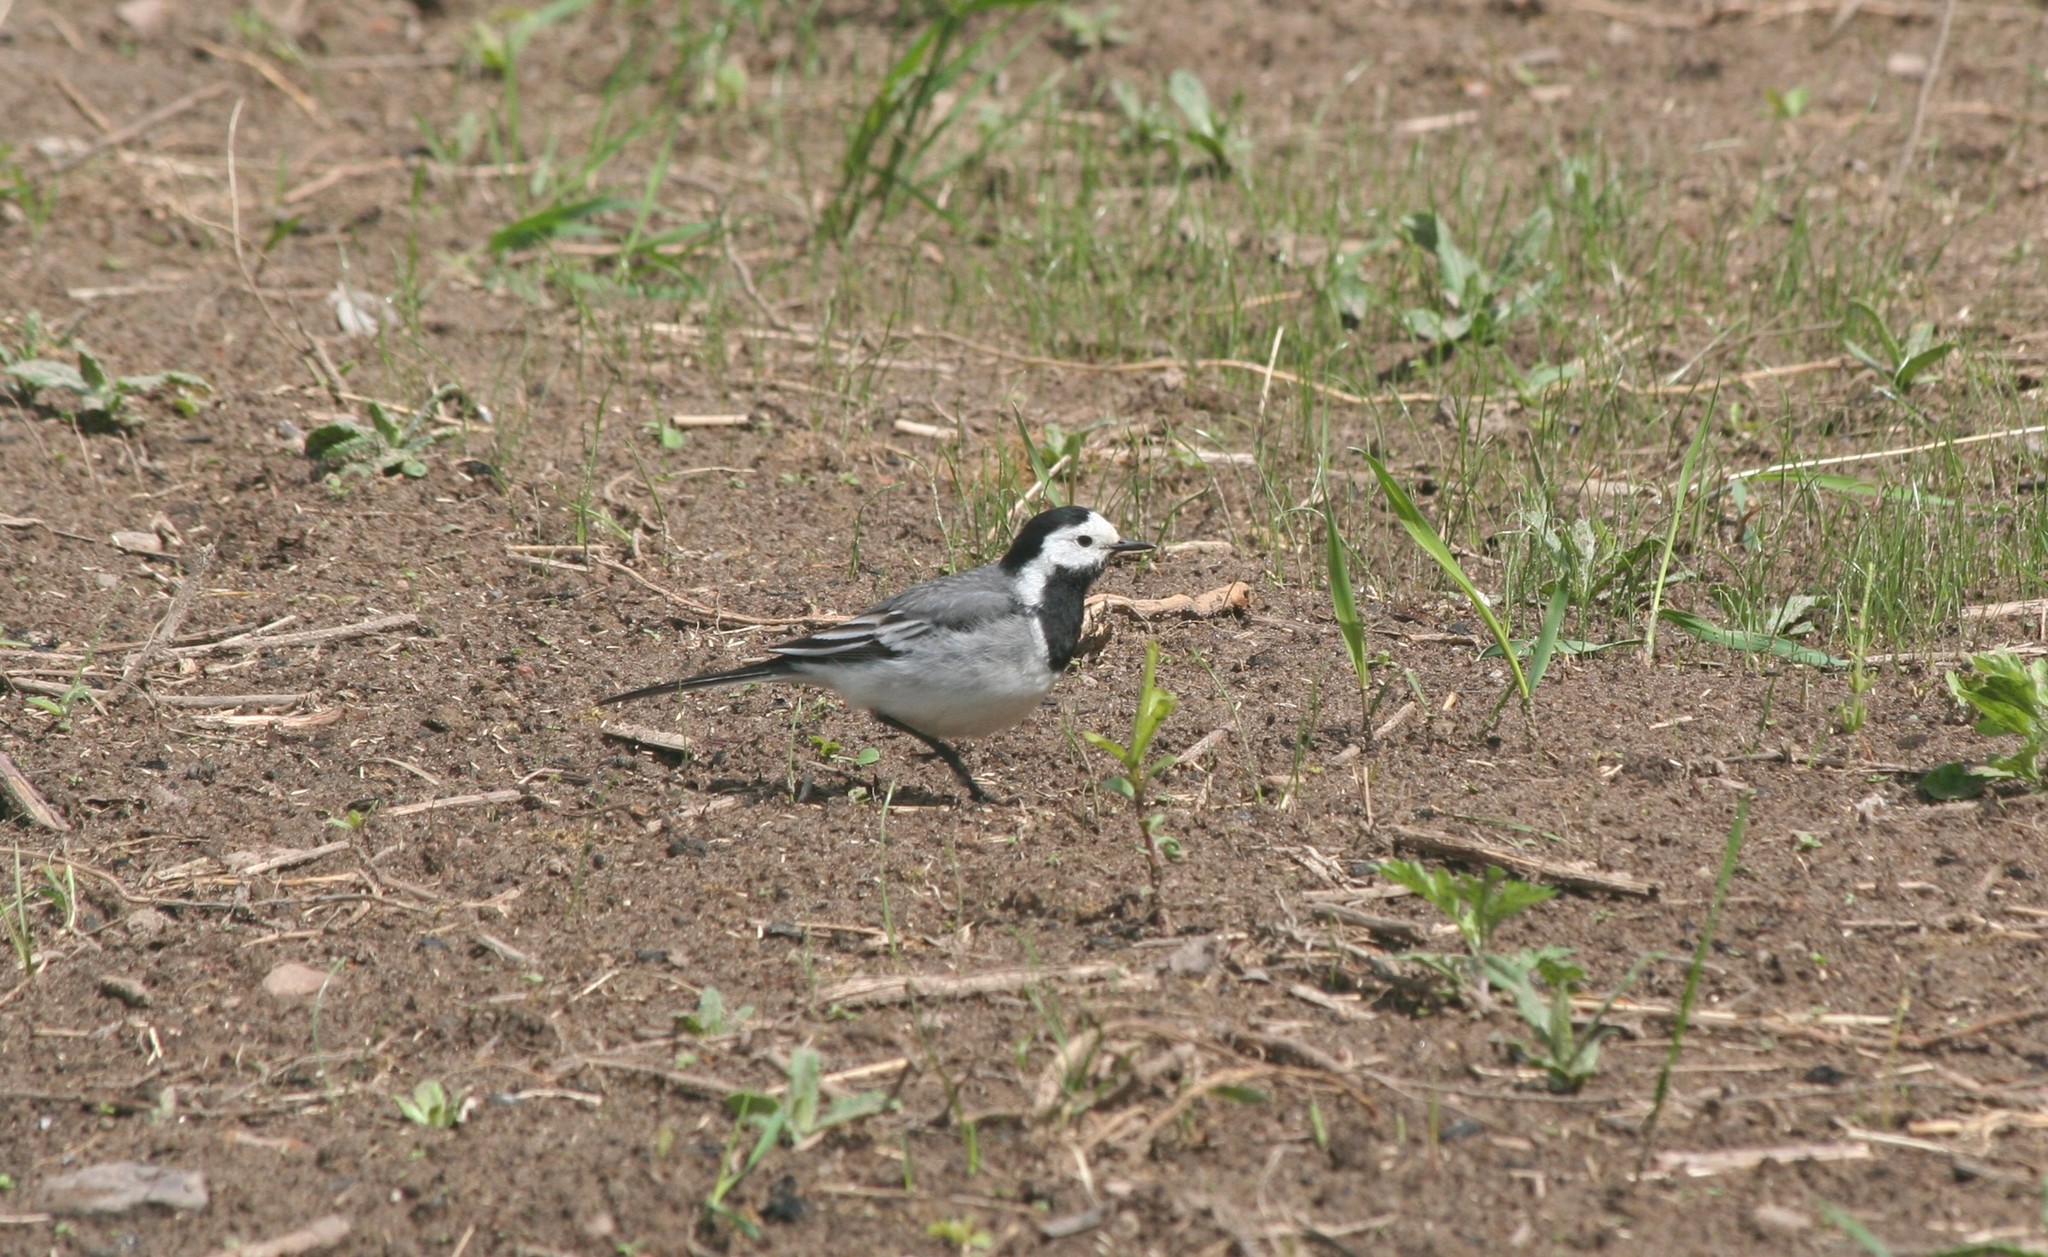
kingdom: Animalia
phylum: Chordata
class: Aves
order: Passeriformes
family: Motacillidae
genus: Motacilla
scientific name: Motacilla alba
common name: White wagtail
